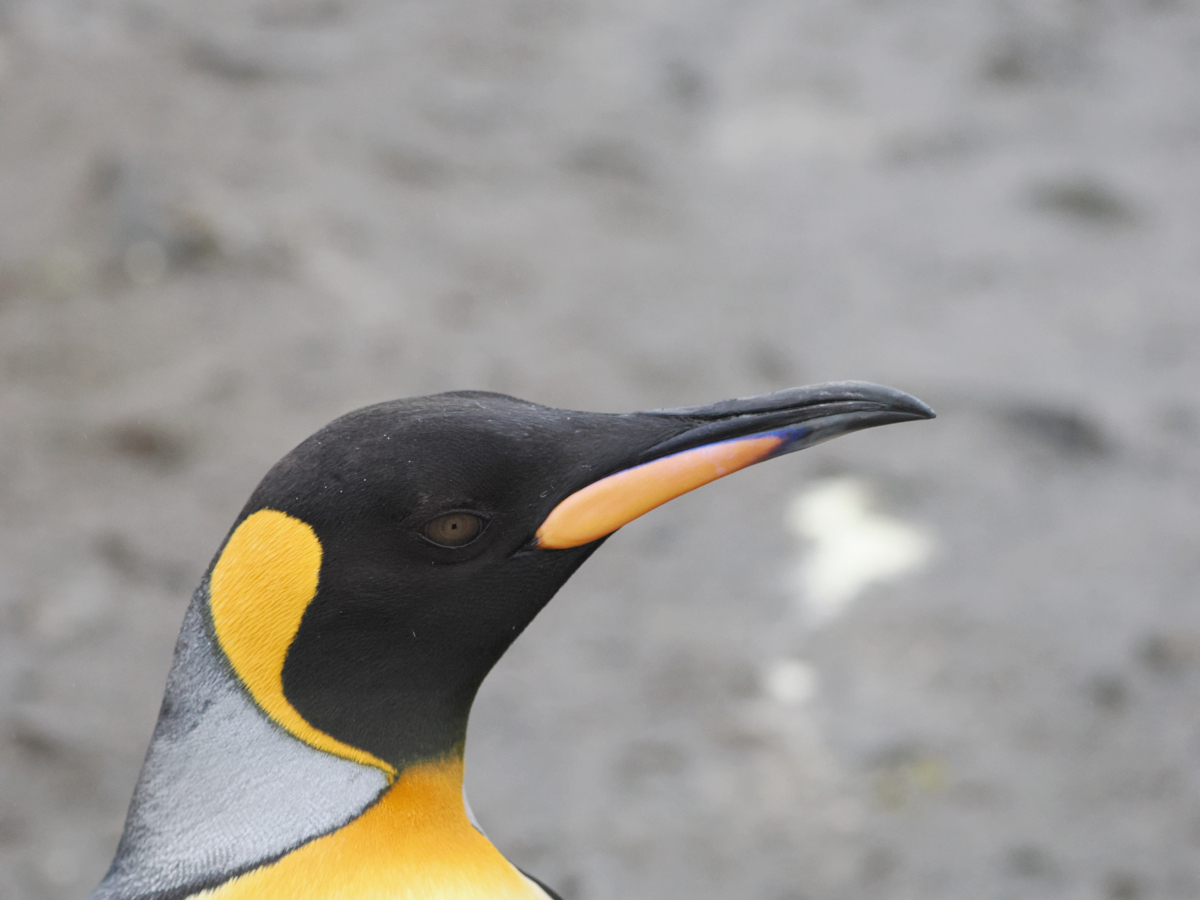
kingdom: Animalia
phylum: Chordata
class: Aves
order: Sphenisciformes
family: Spheniscidae
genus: Aptenodytes
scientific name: Aptenodytes patagonicus
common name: King penguin
